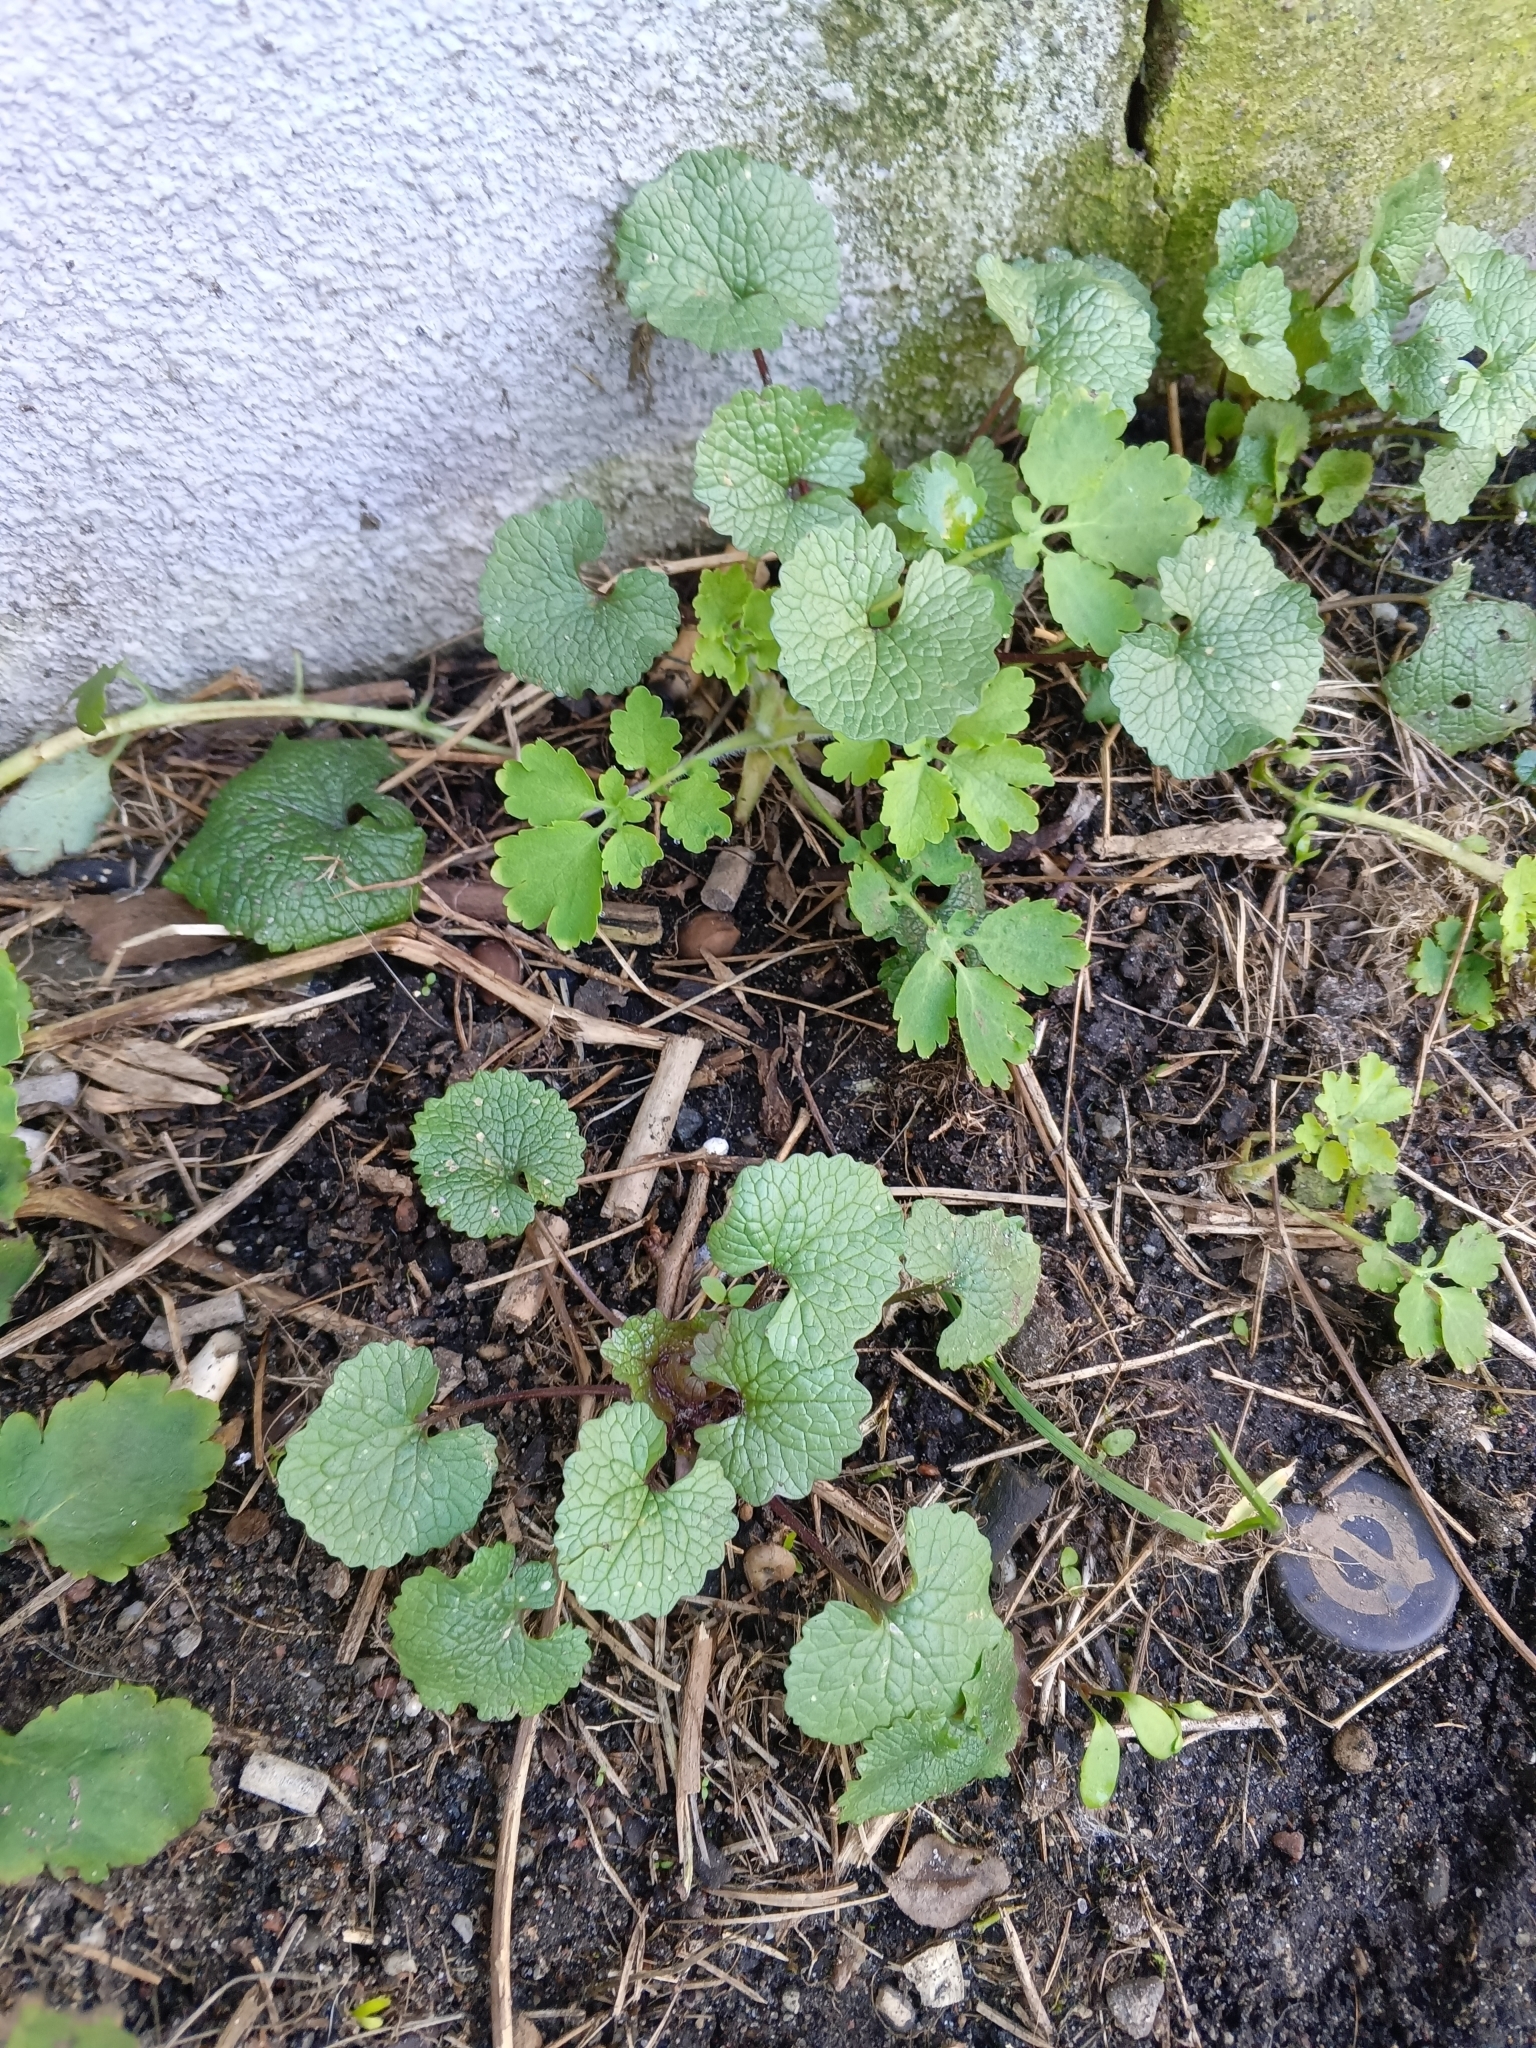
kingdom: Plantae
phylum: Tracheophyta
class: Magnoliopsida
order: Brassicales
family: Brassicaceae
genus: Alliaria
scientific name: Alliaria petiolata
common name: Garlic mustard
